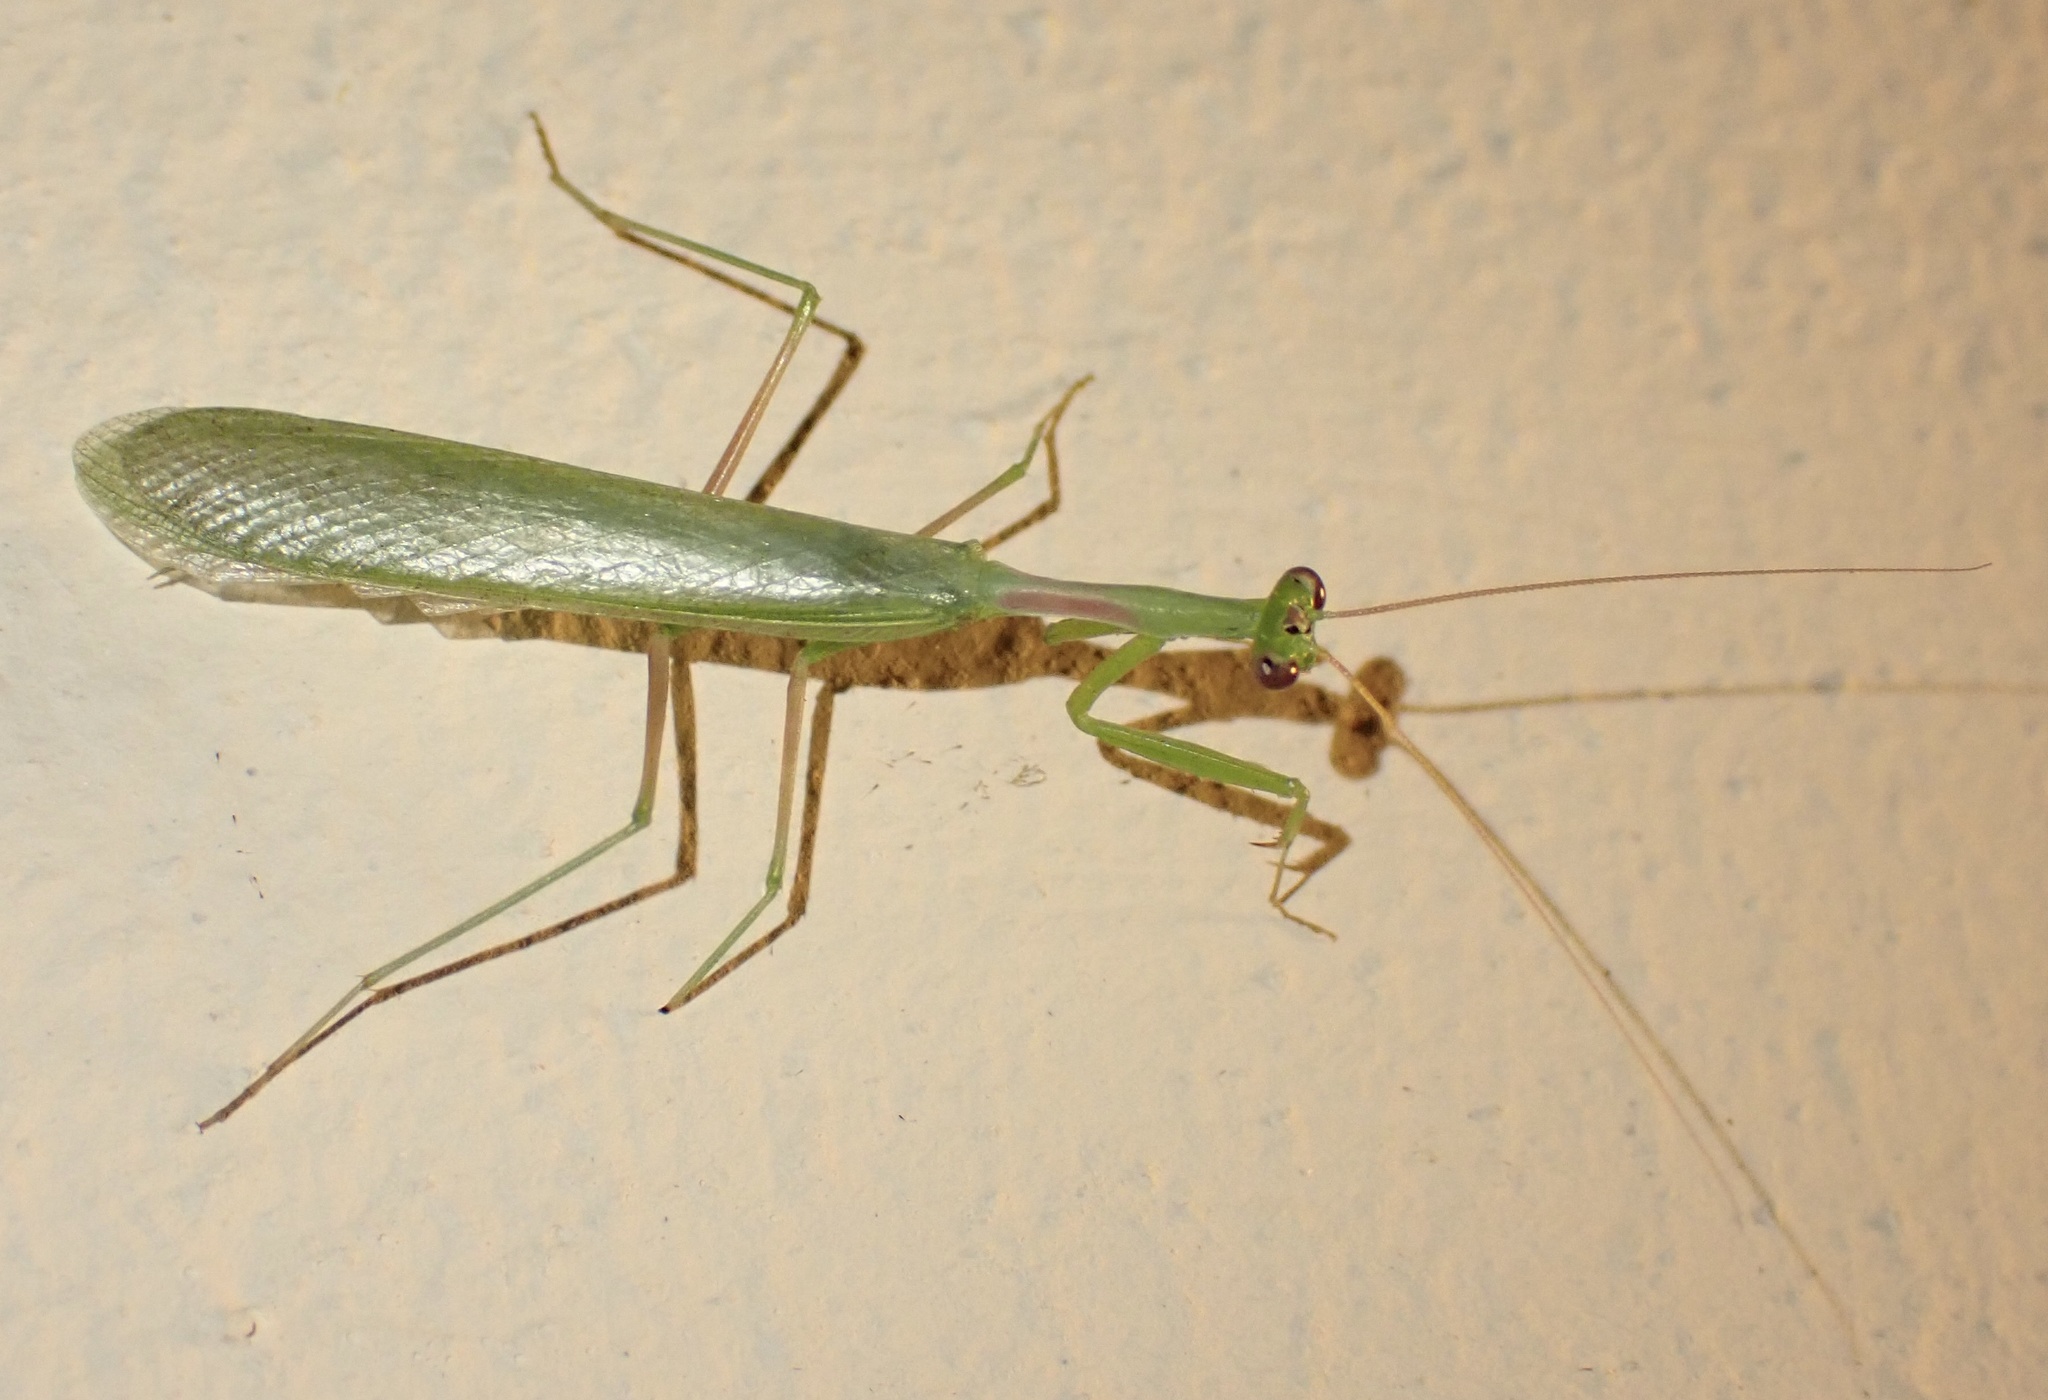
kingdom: Animalia
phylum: Arthropoda
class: Insecta
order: Mantodea
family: Miomantidae
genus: Miomantis
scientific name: Miomantis caffra
